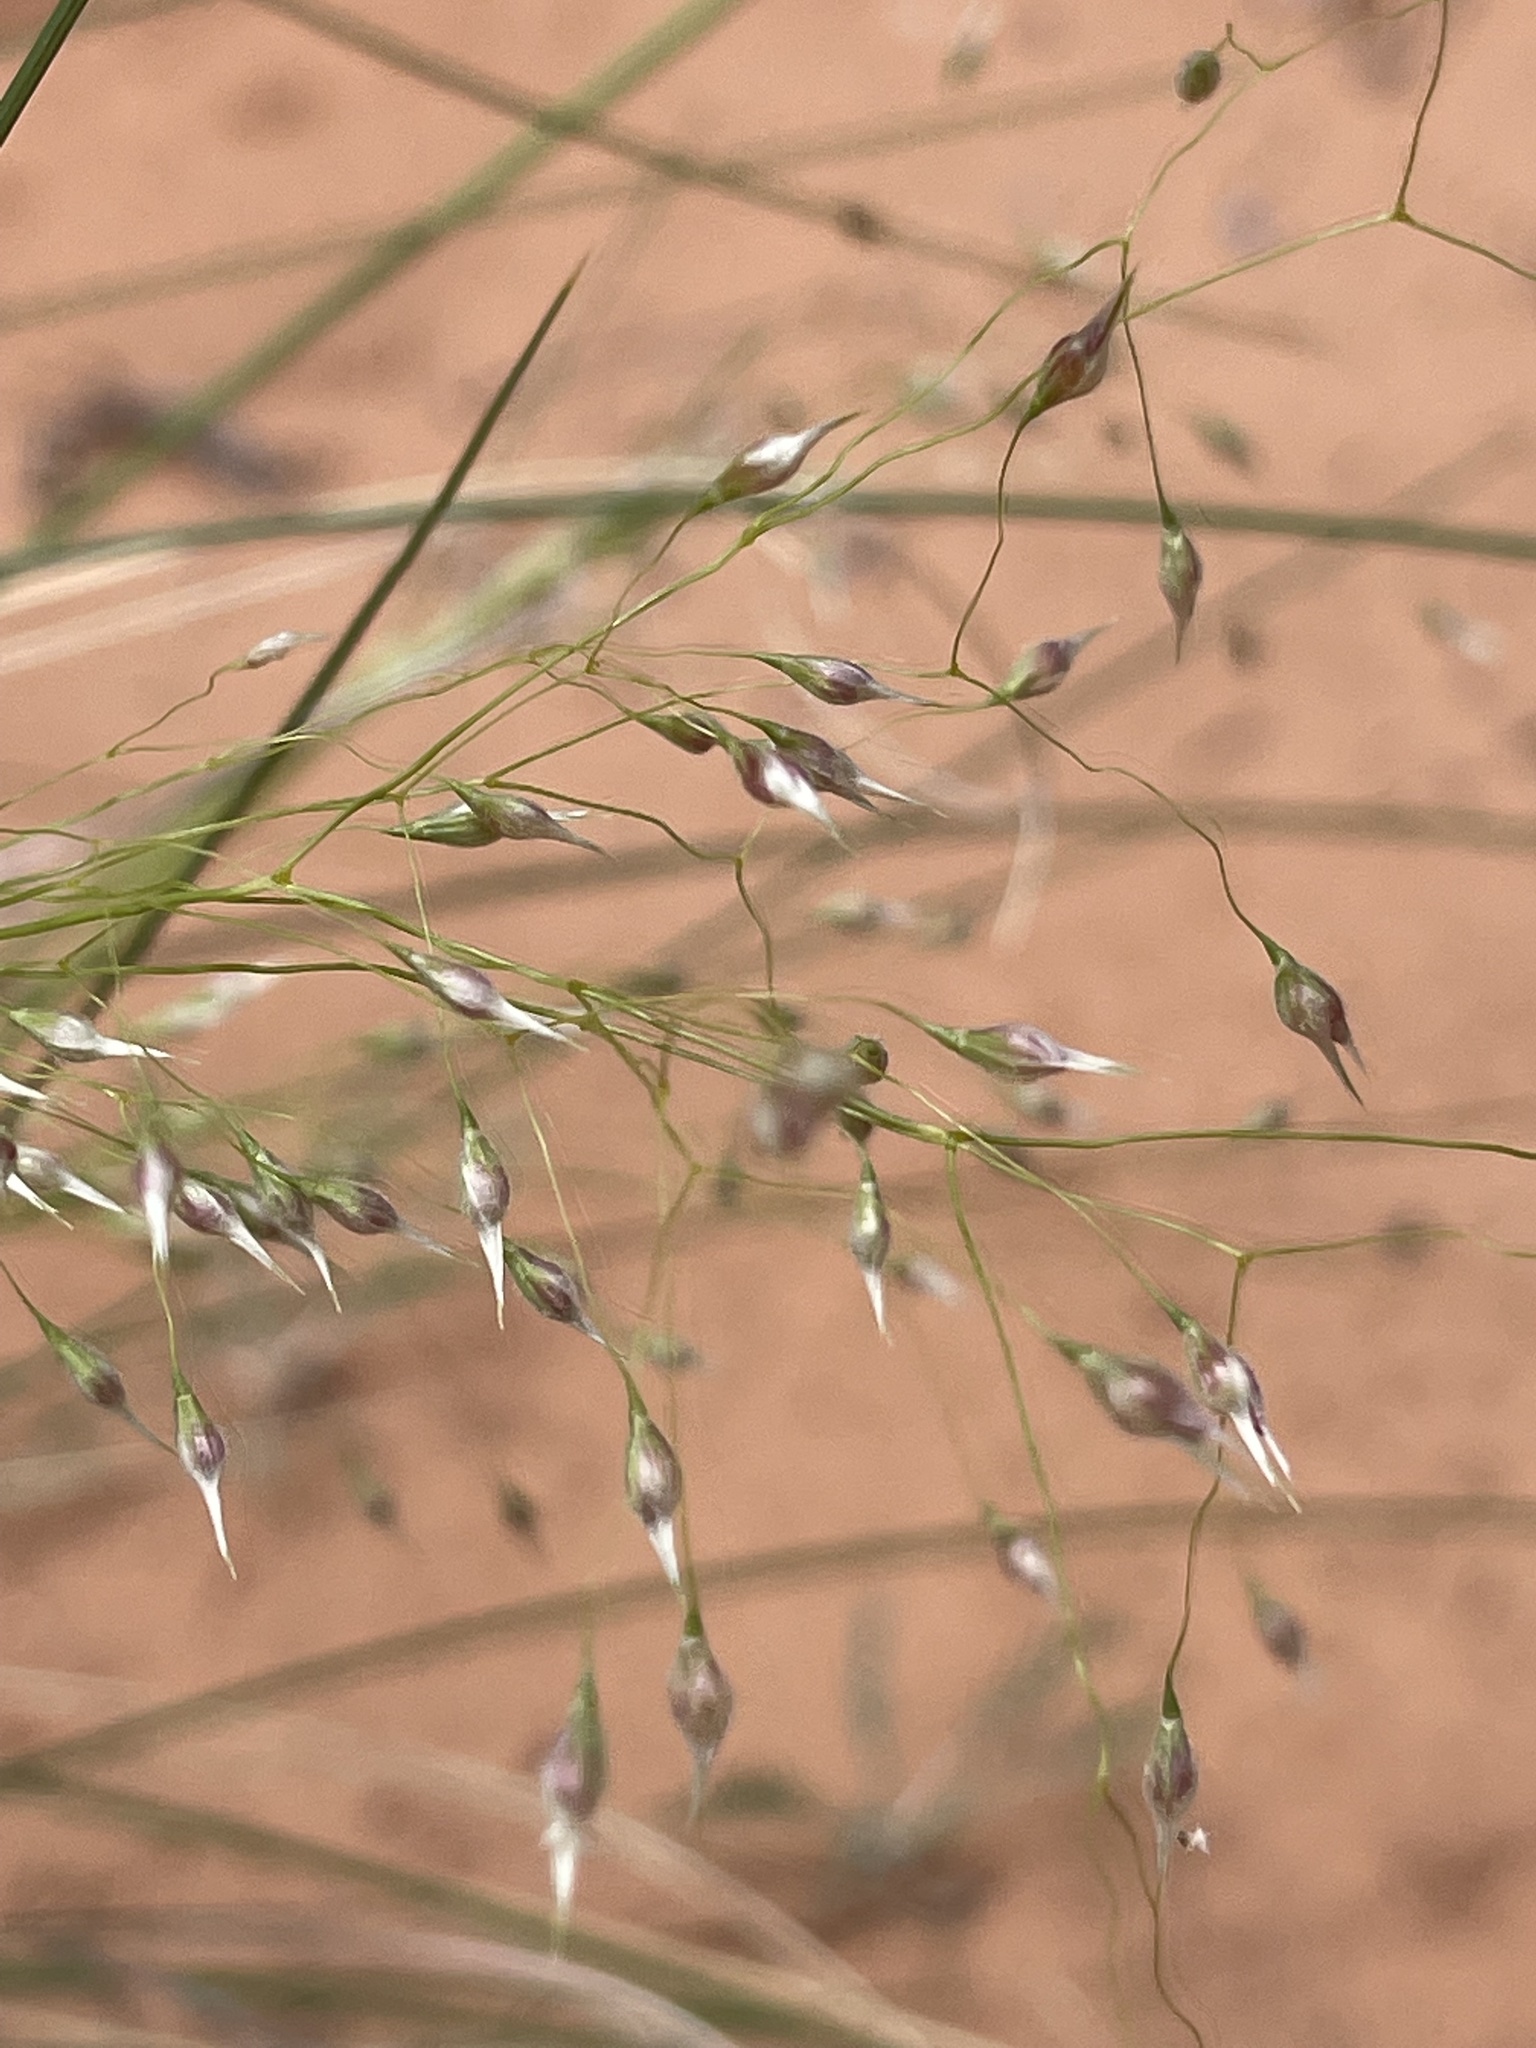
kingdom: Plantae
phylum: Tracheophyta
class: Liliopsida
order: Poales
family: Poaceae
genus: Eriocoma
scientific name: Eriocoma hymenoides
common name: Indian mountain ricegrass
